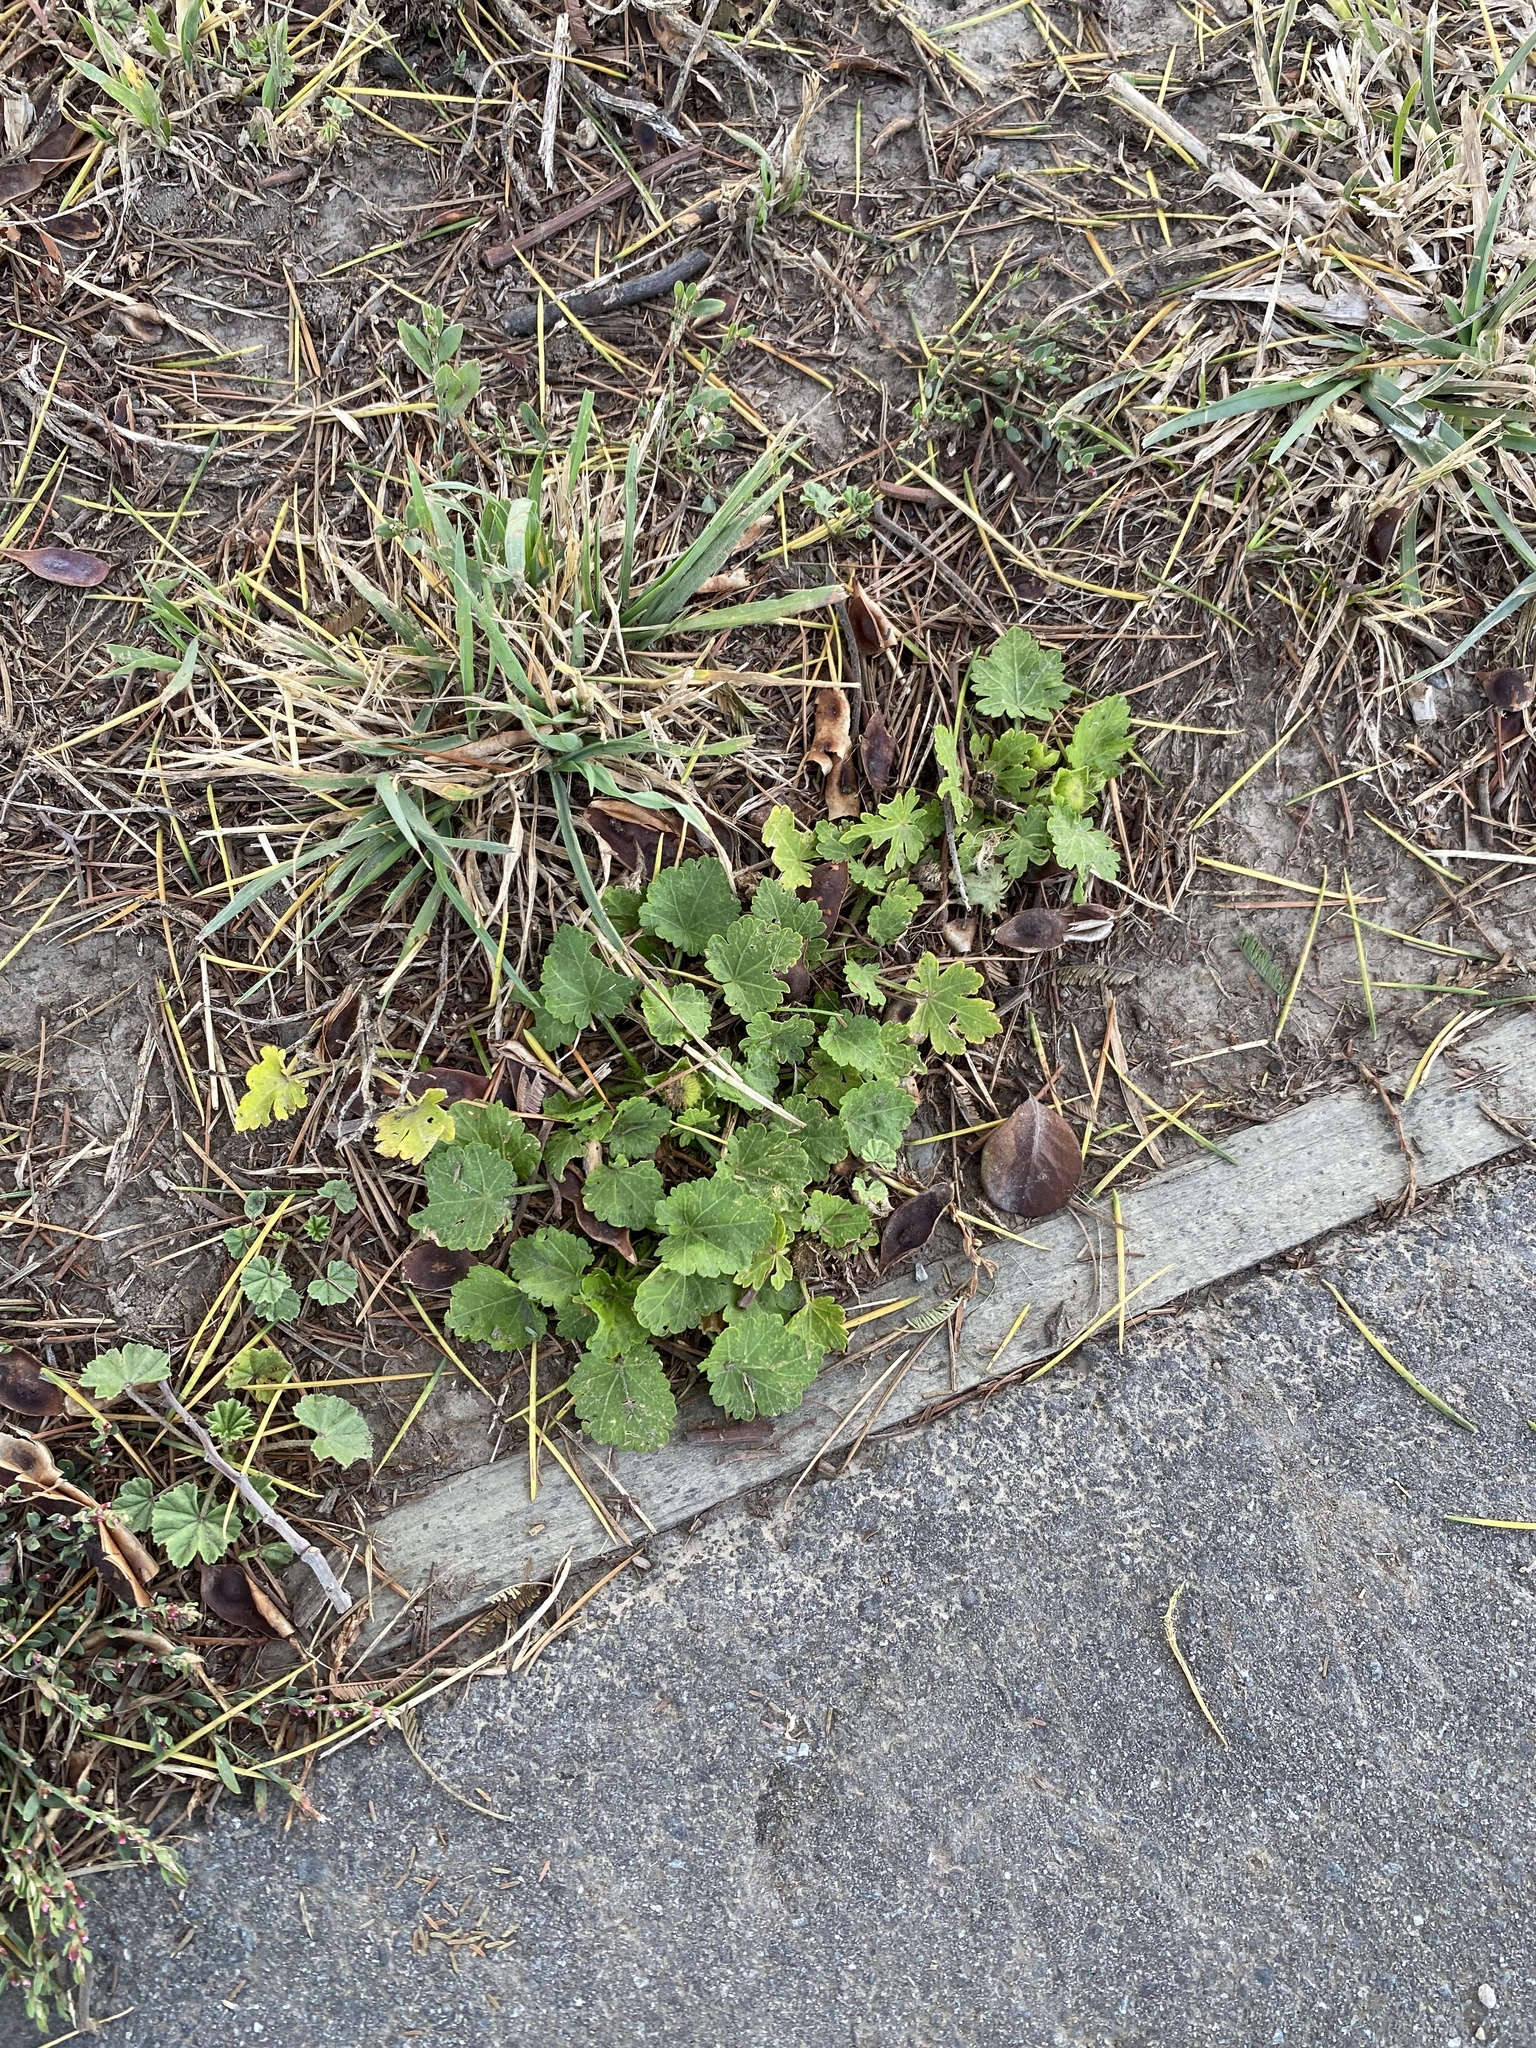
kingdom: Plantae
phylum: Tracheophyta
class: Magnoliopsida
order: Malvales
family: Malvaceae
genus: Modiola
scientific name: Modiola caroliniana
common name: Carolina bristlemallow
